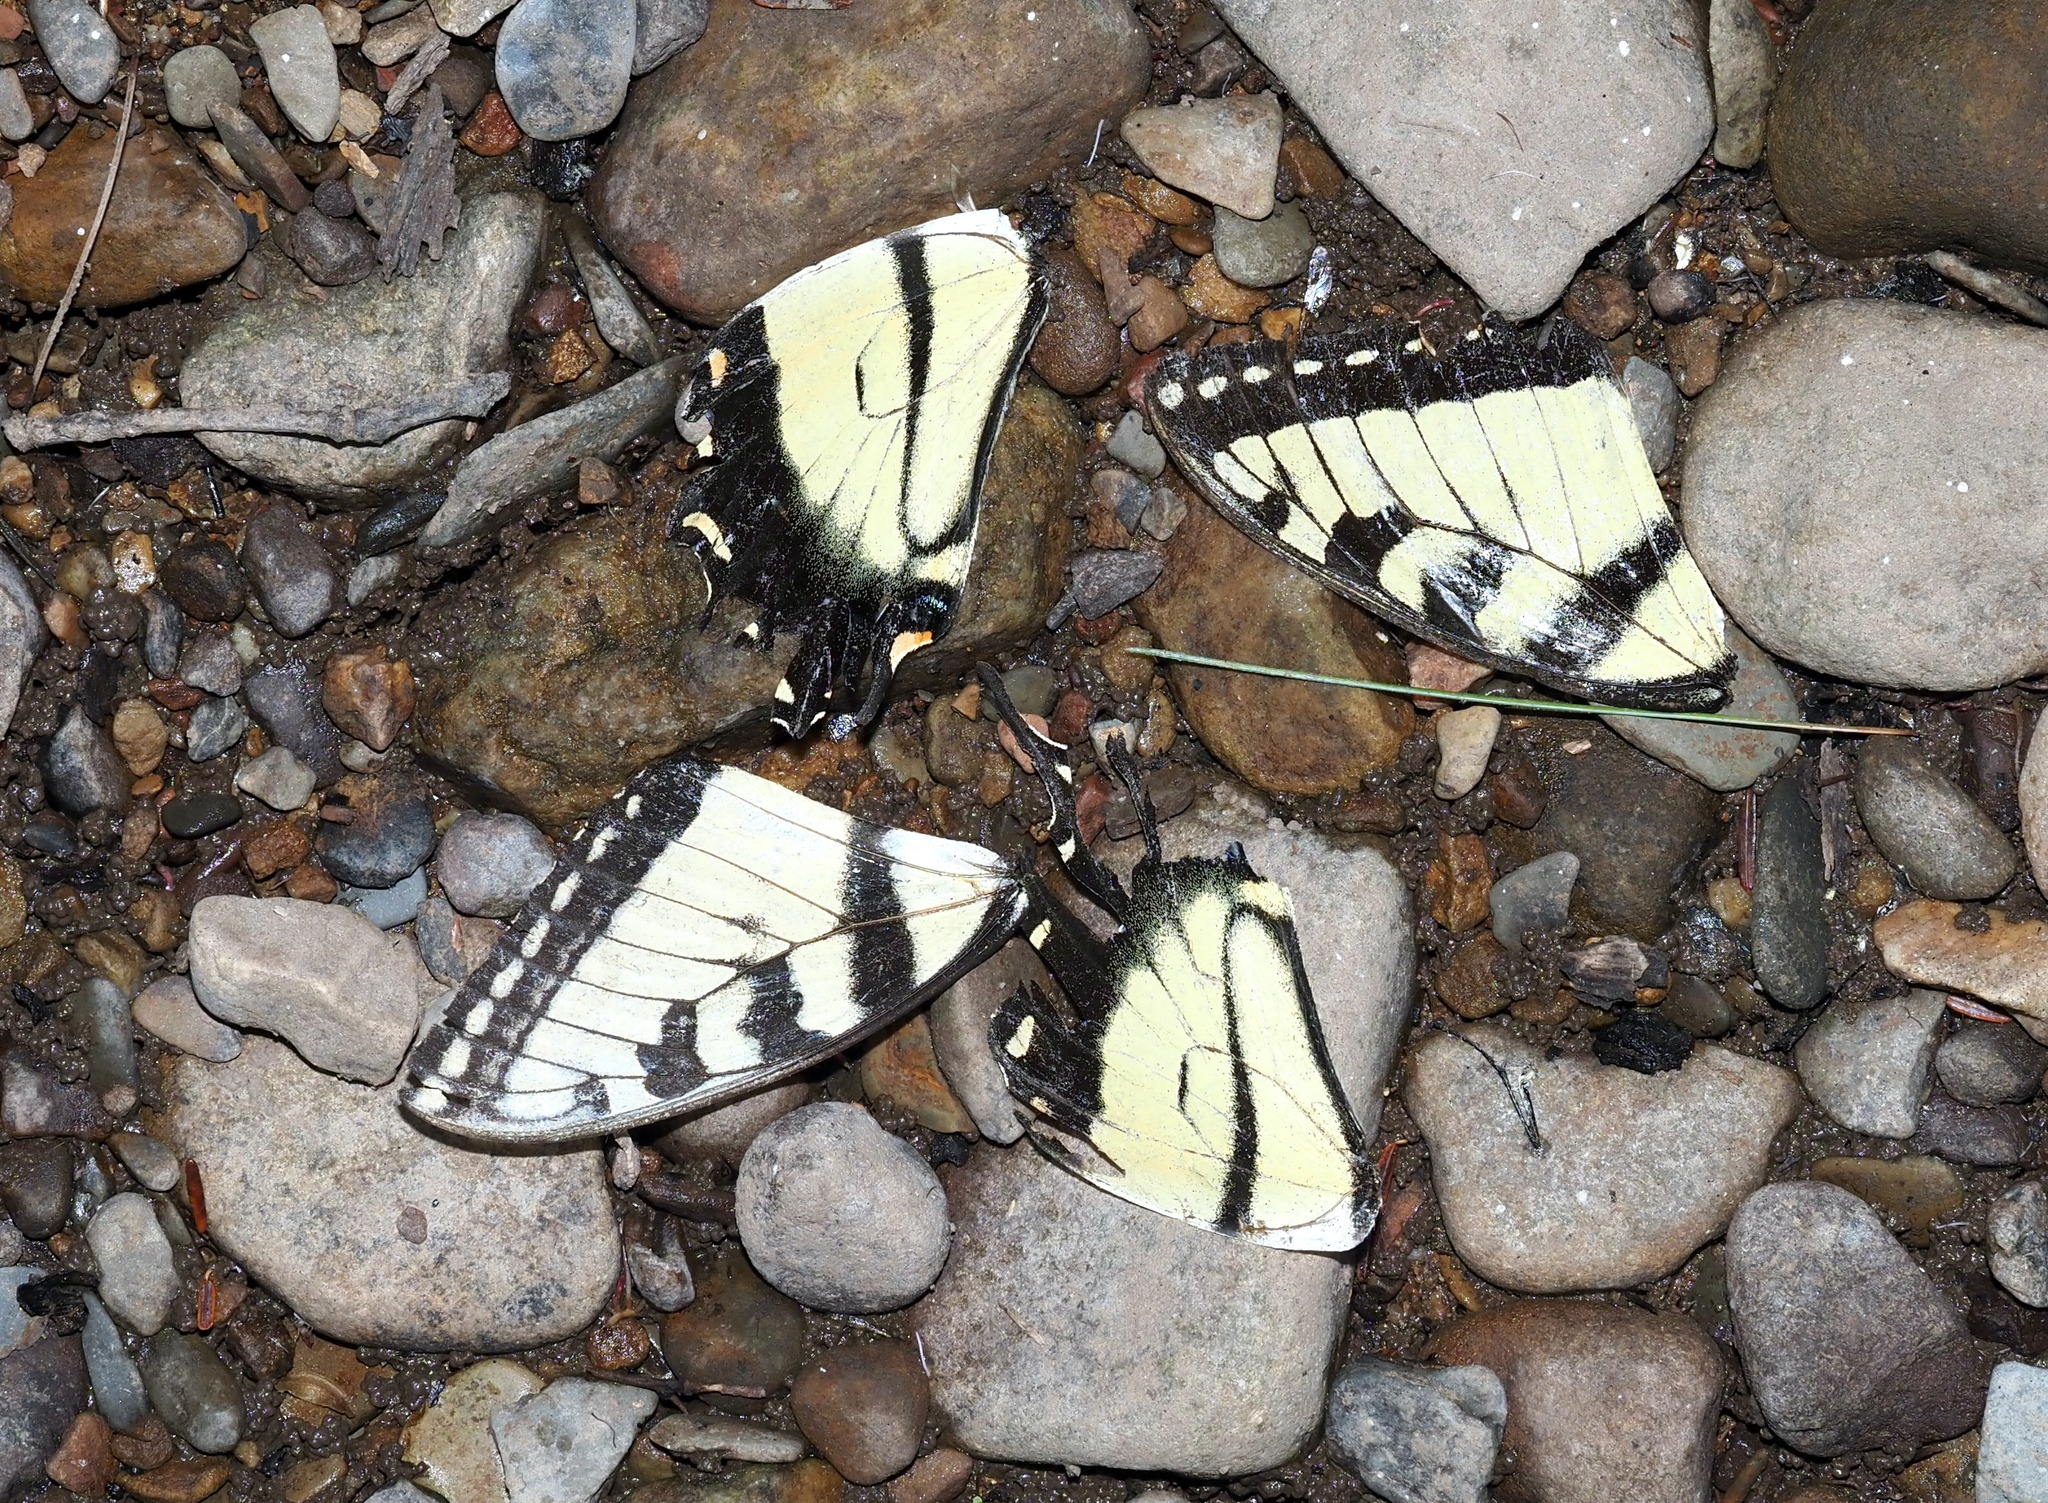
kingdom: Animalia
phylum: Arthropoda
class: Insecta
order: Lepidoptera
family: Papilionidae
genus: Papilio
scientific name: Papilio glaucus
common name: Tiger swallowtail
